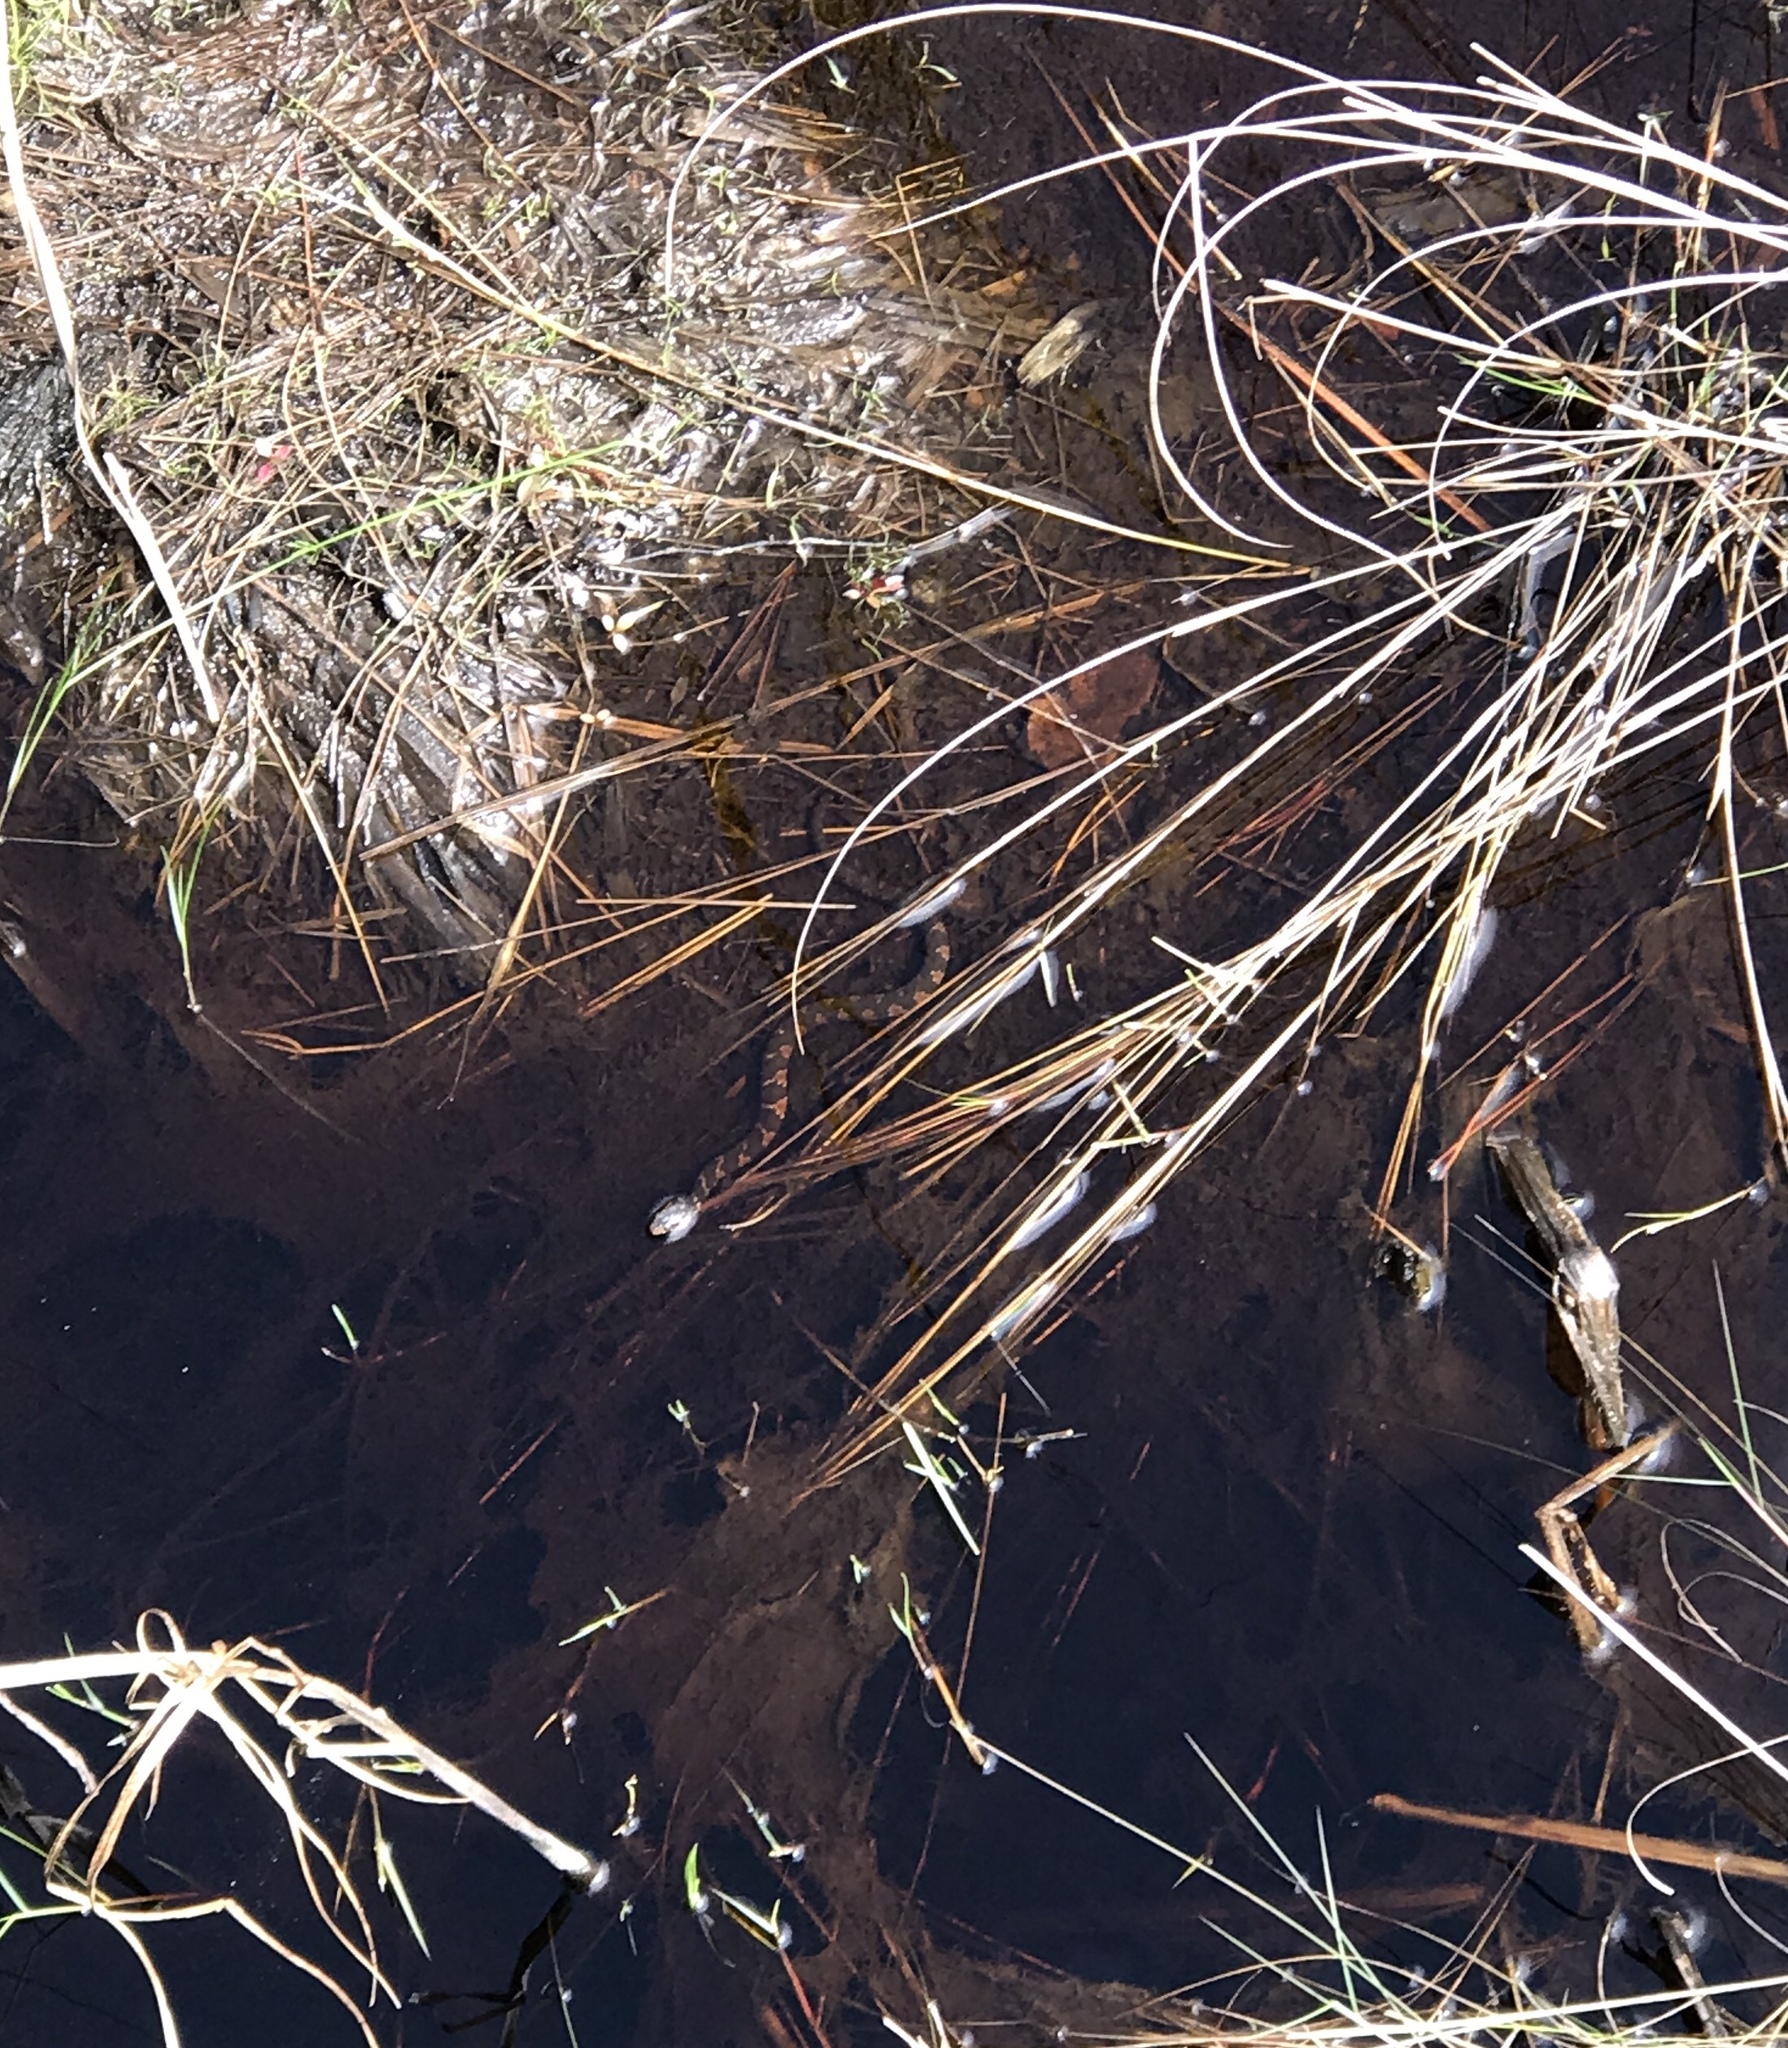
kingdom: Animalia
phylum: Chordata
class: Squamata
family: Colubridae
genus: Nerodia
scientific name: Nerodia fasciata
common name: Southern water snake
